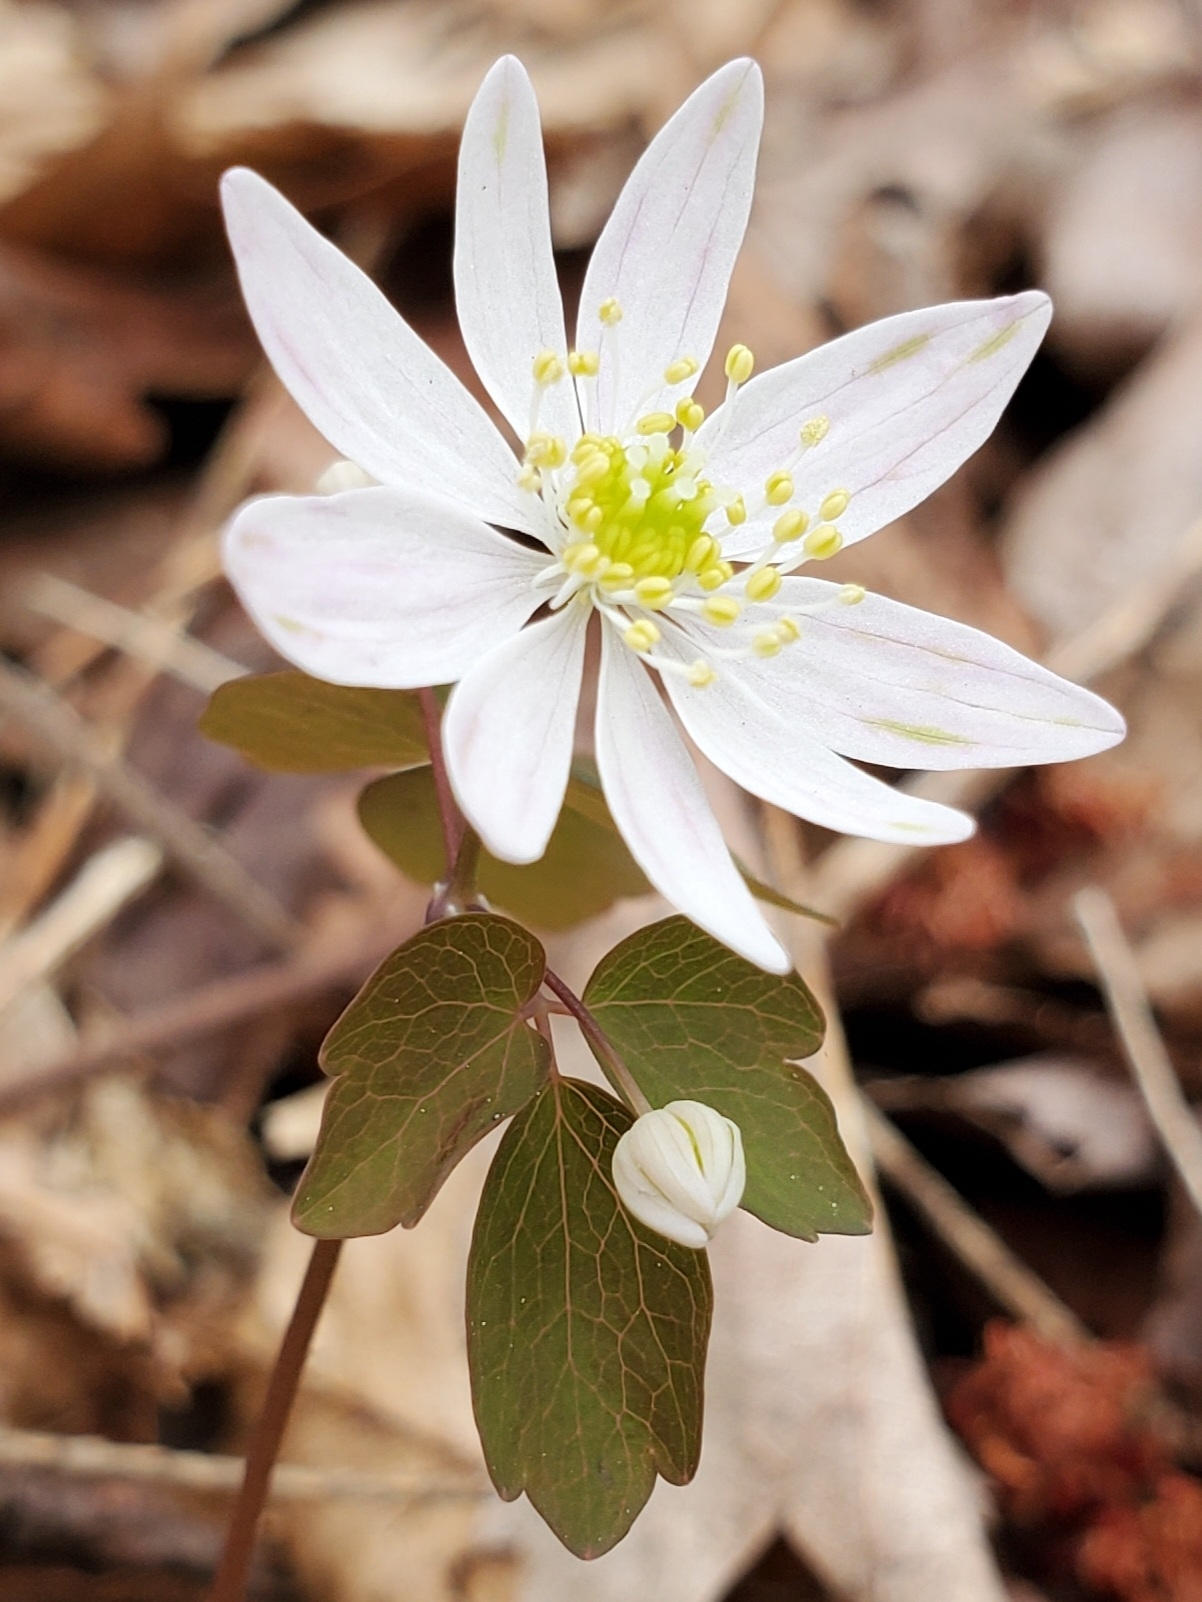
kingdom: Plantae
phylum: Tracheophyta
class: Magnoliopsida
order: Ranunculales
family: Ranunculaceae
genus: Thalictrum
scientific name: Thalictrum thalictroides
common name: Rue-anemone
